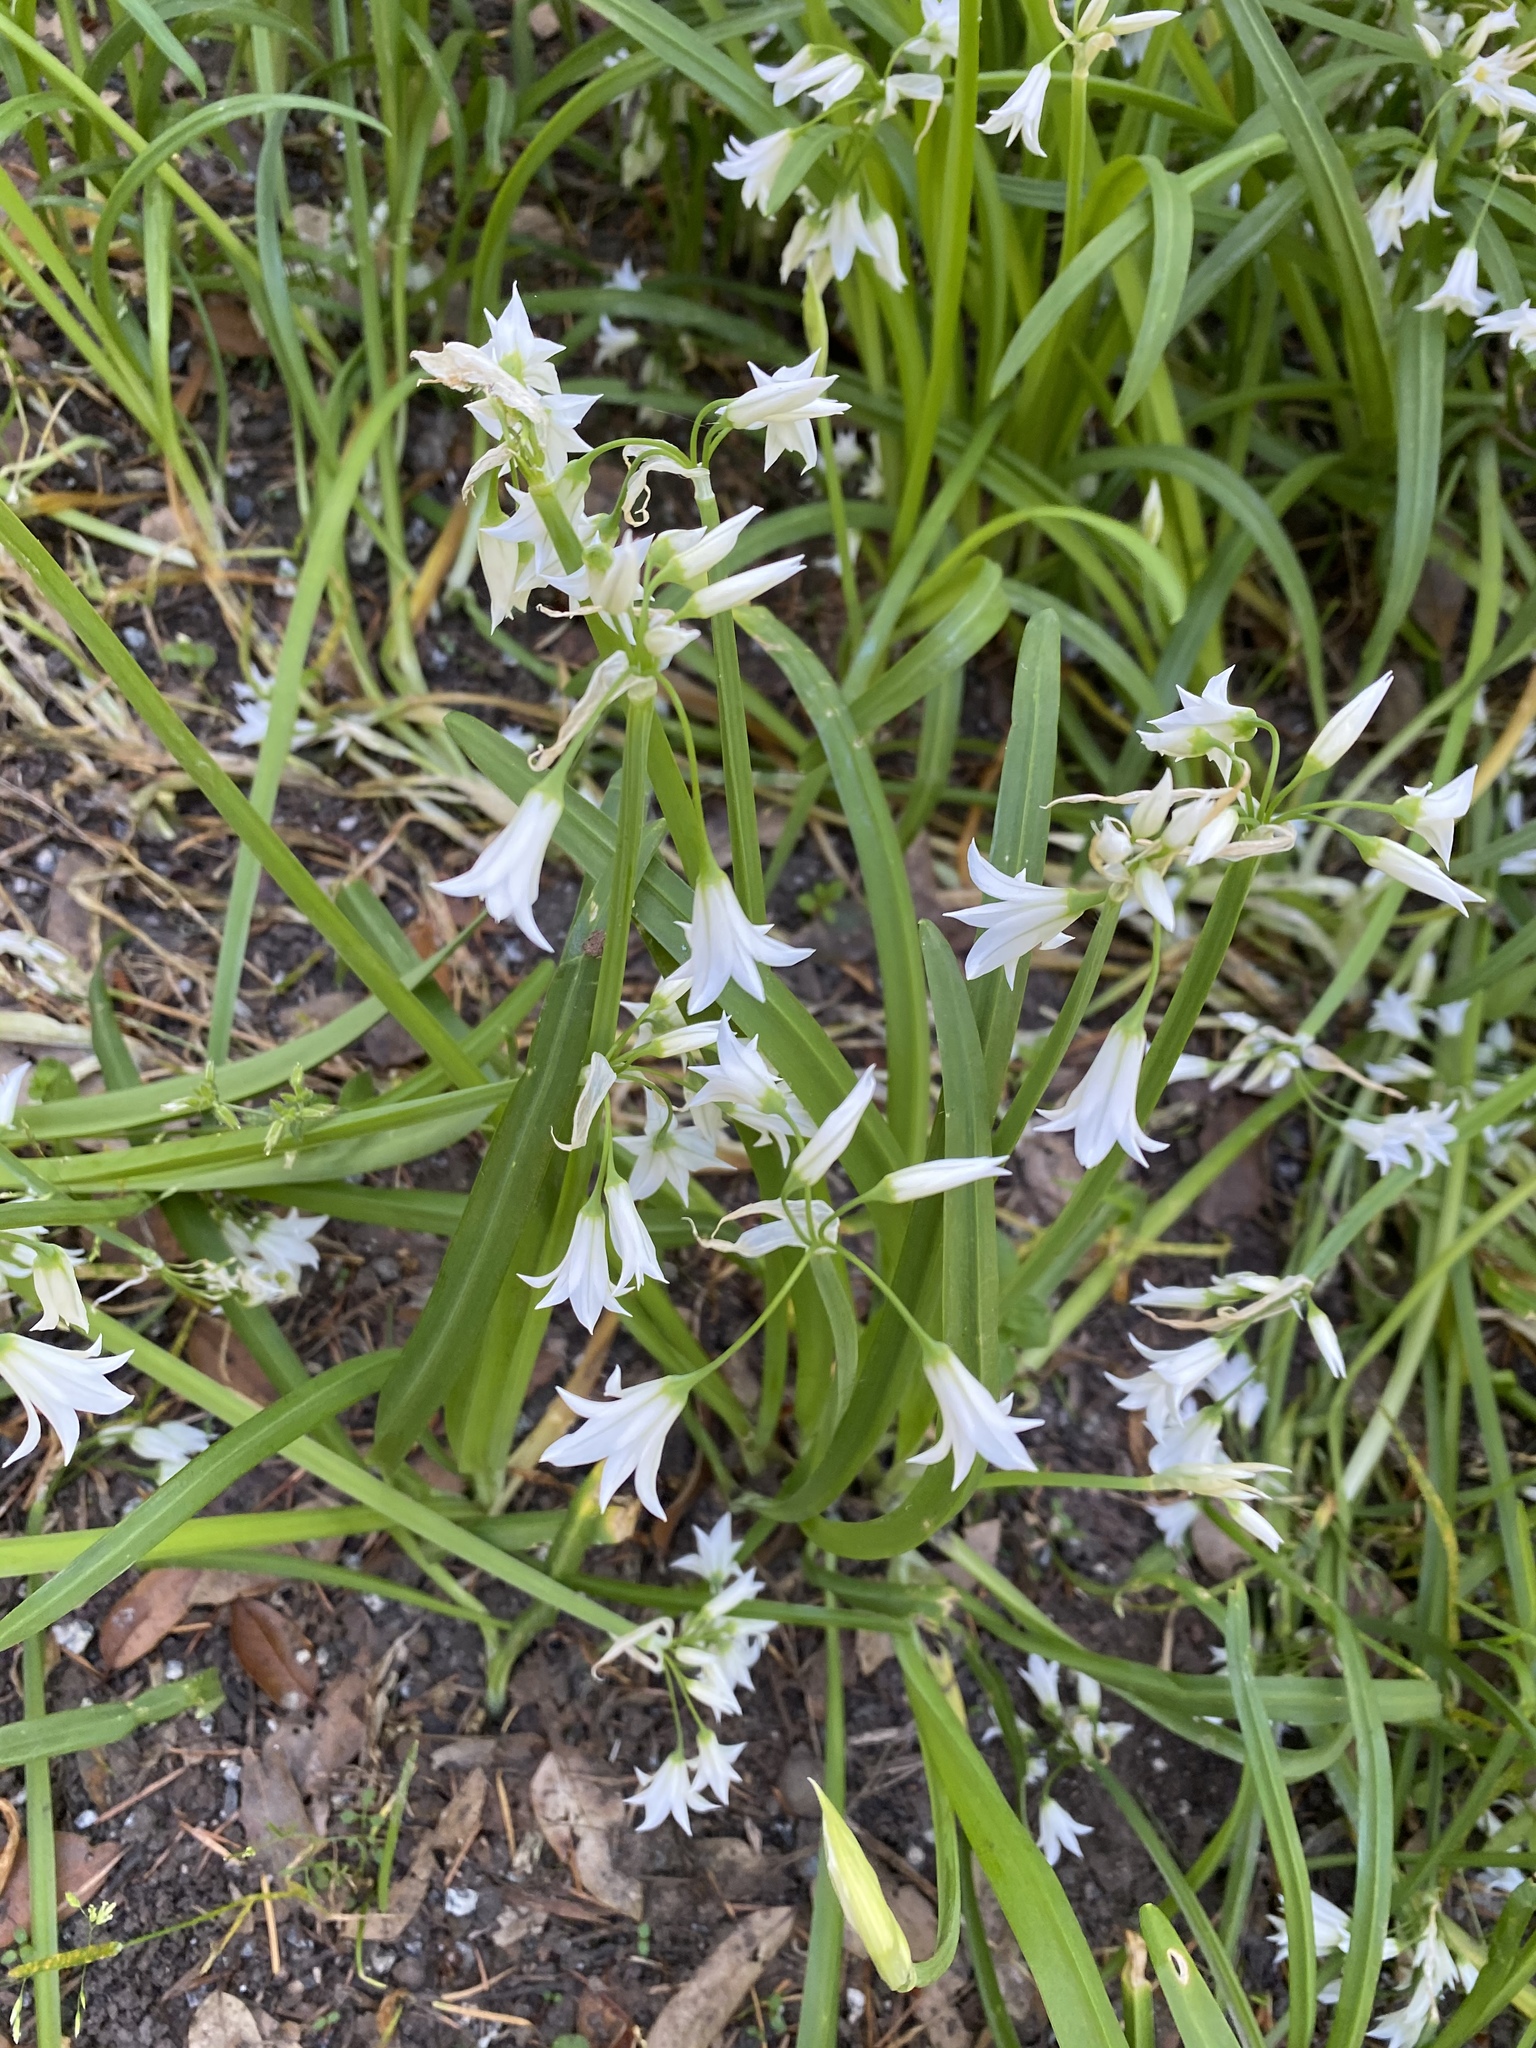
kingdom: Plantae
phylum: Tracheophyta
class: Liliopsida
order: Asparagales
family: Amaryllidaceae
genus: Allium
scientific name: Allium triquetrum
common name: Three-cornered garlic
